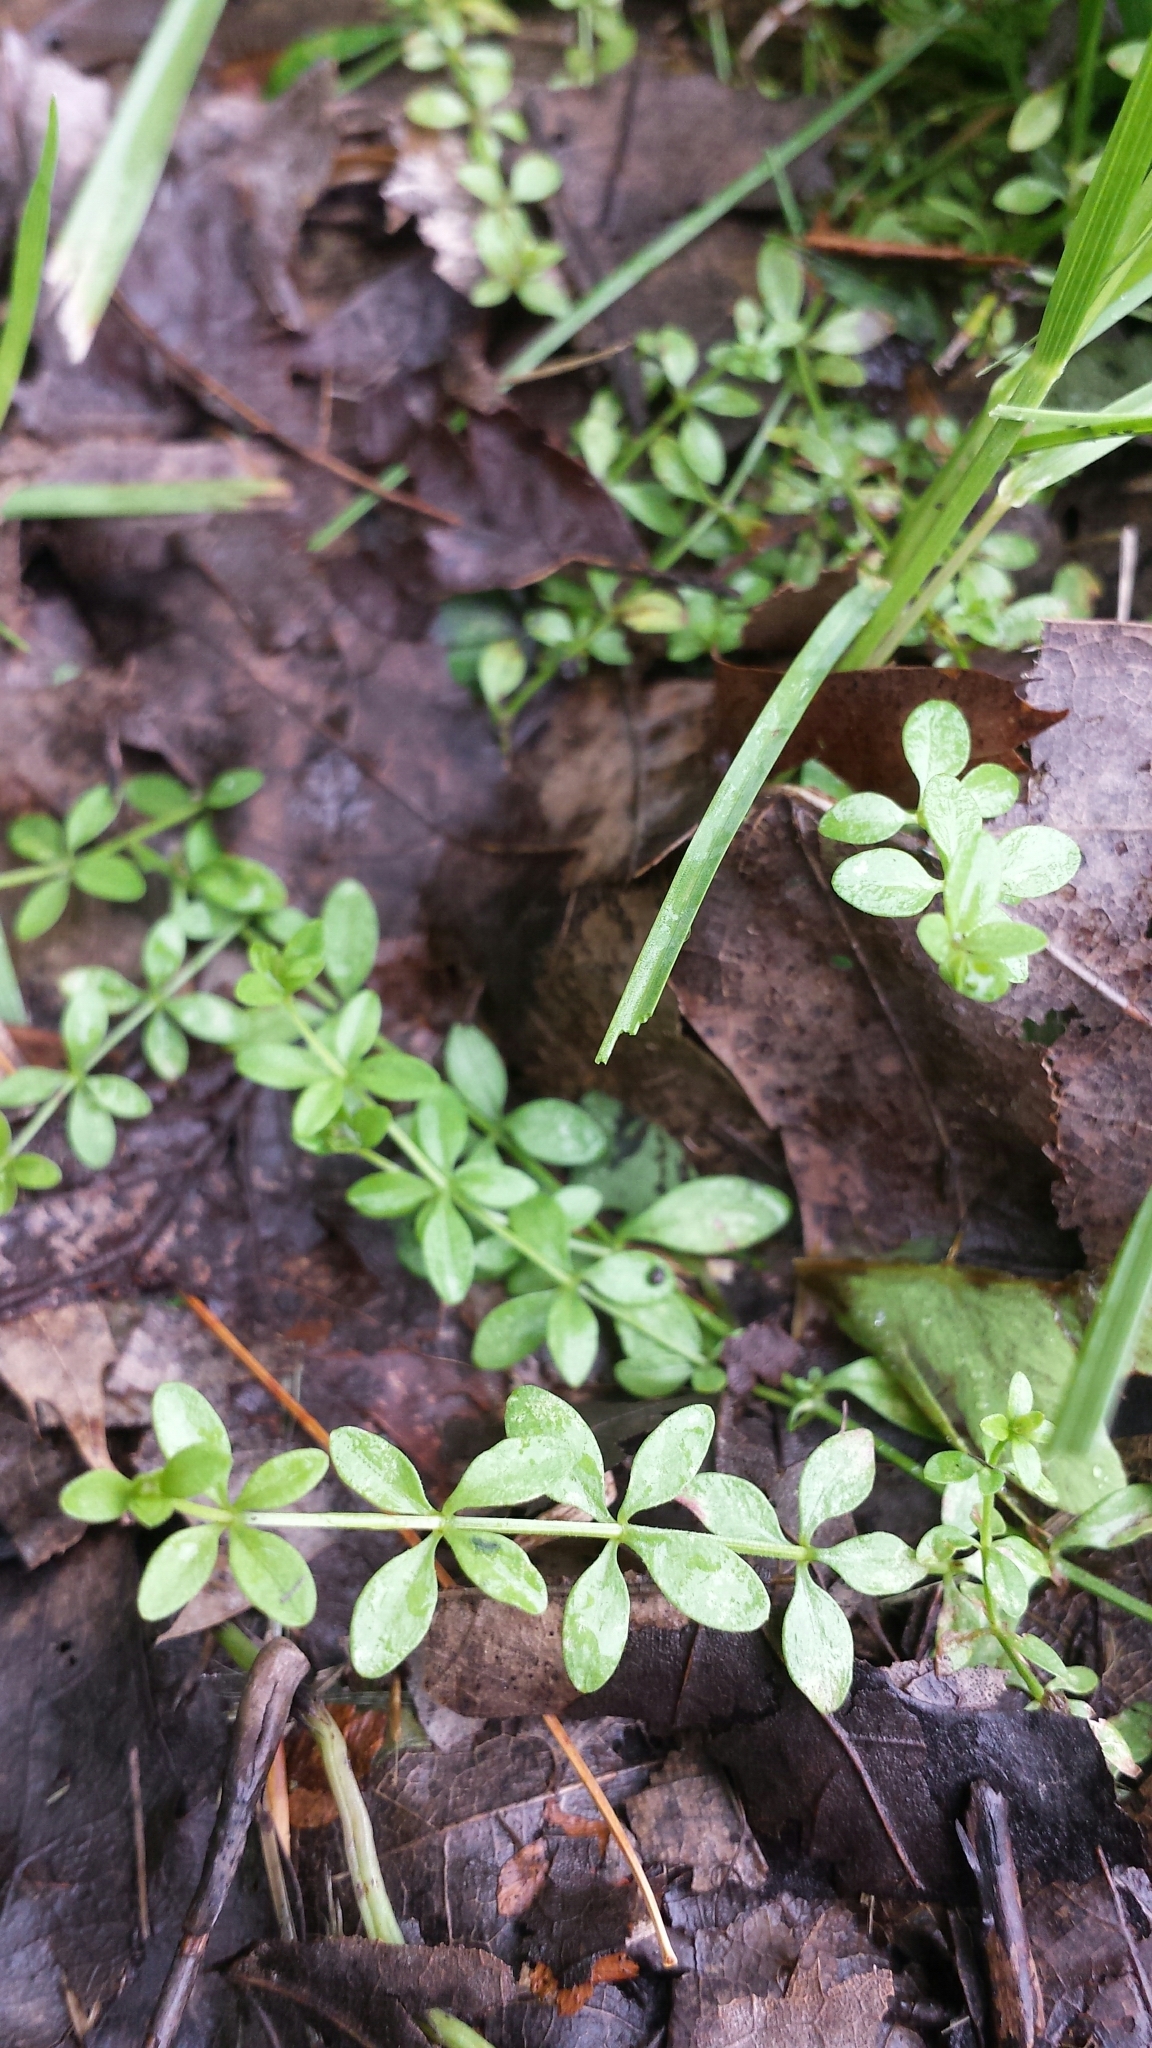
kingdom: Plantae
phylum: Tracheophyta
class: Magnoliopsida
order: Gentianales
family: Rubiaceae
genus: Galium
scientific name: Galium palustre
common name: Common marsh-bedstraw
